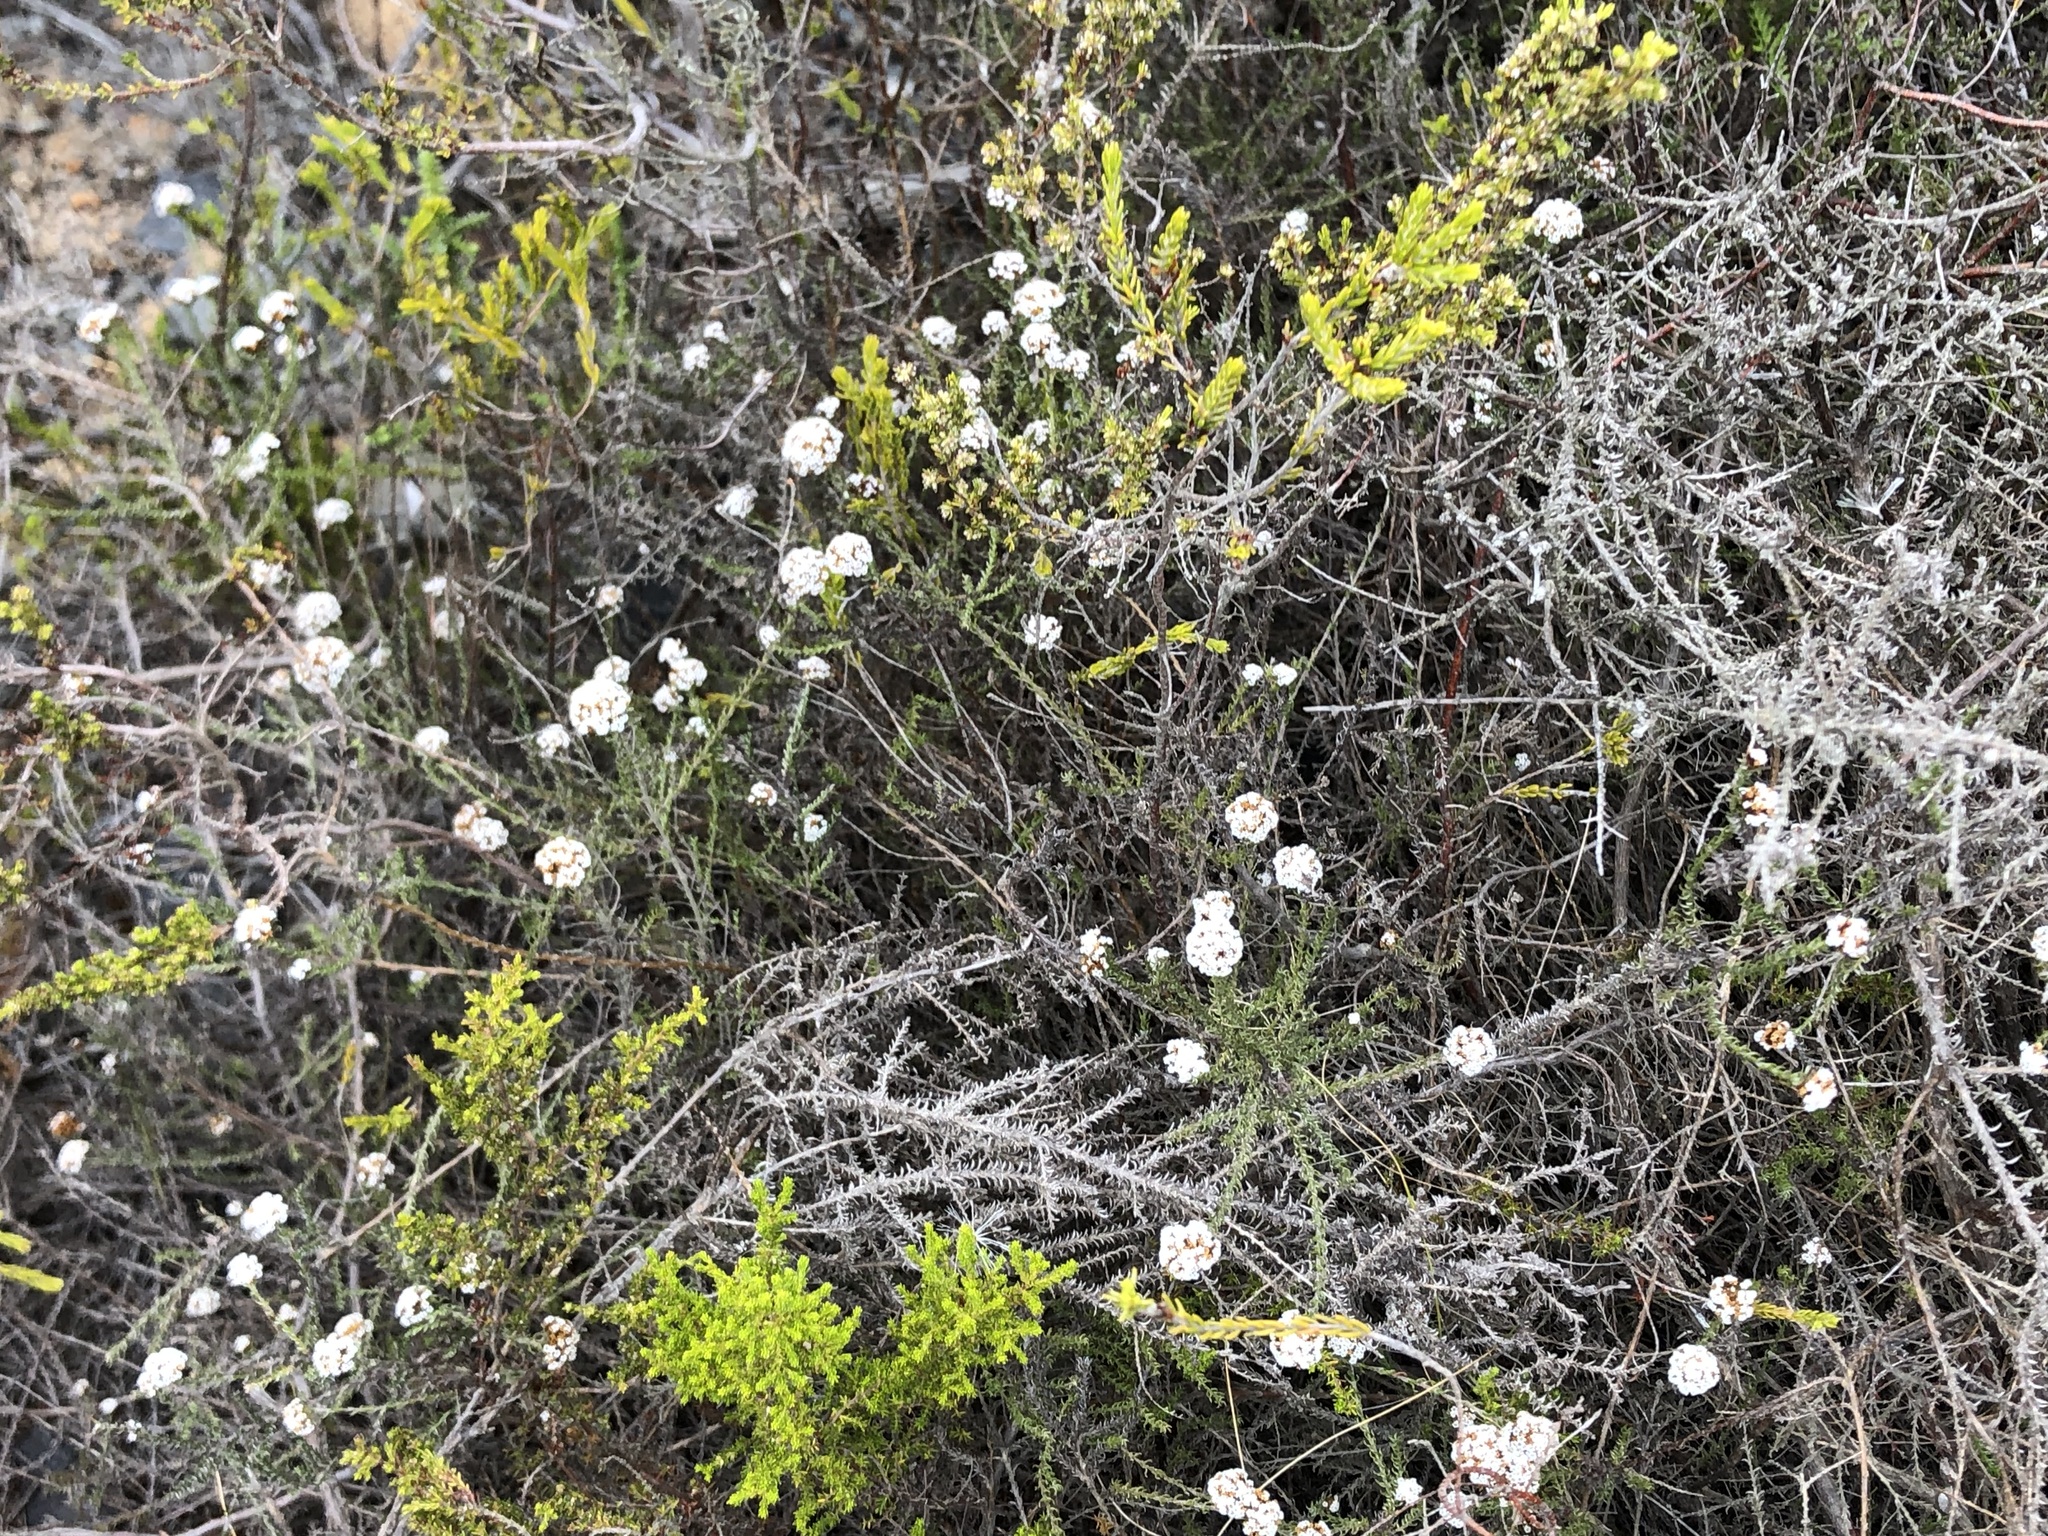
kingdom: Plantae
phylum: Tracheophyta
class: Magnoliopsida
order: Asterales
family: Asteraceae
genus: Stoebe
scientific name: Stoebe capitata
